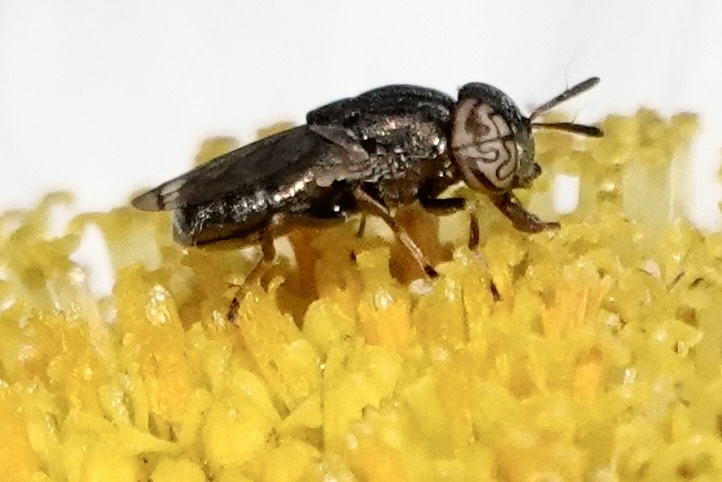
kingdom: Animalia
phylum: Arthropoda
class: Insecta
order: Diptera
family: Syrphidae
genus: Orthonevra
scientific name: Orthonevra nitida
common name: Wavy mucksucker
